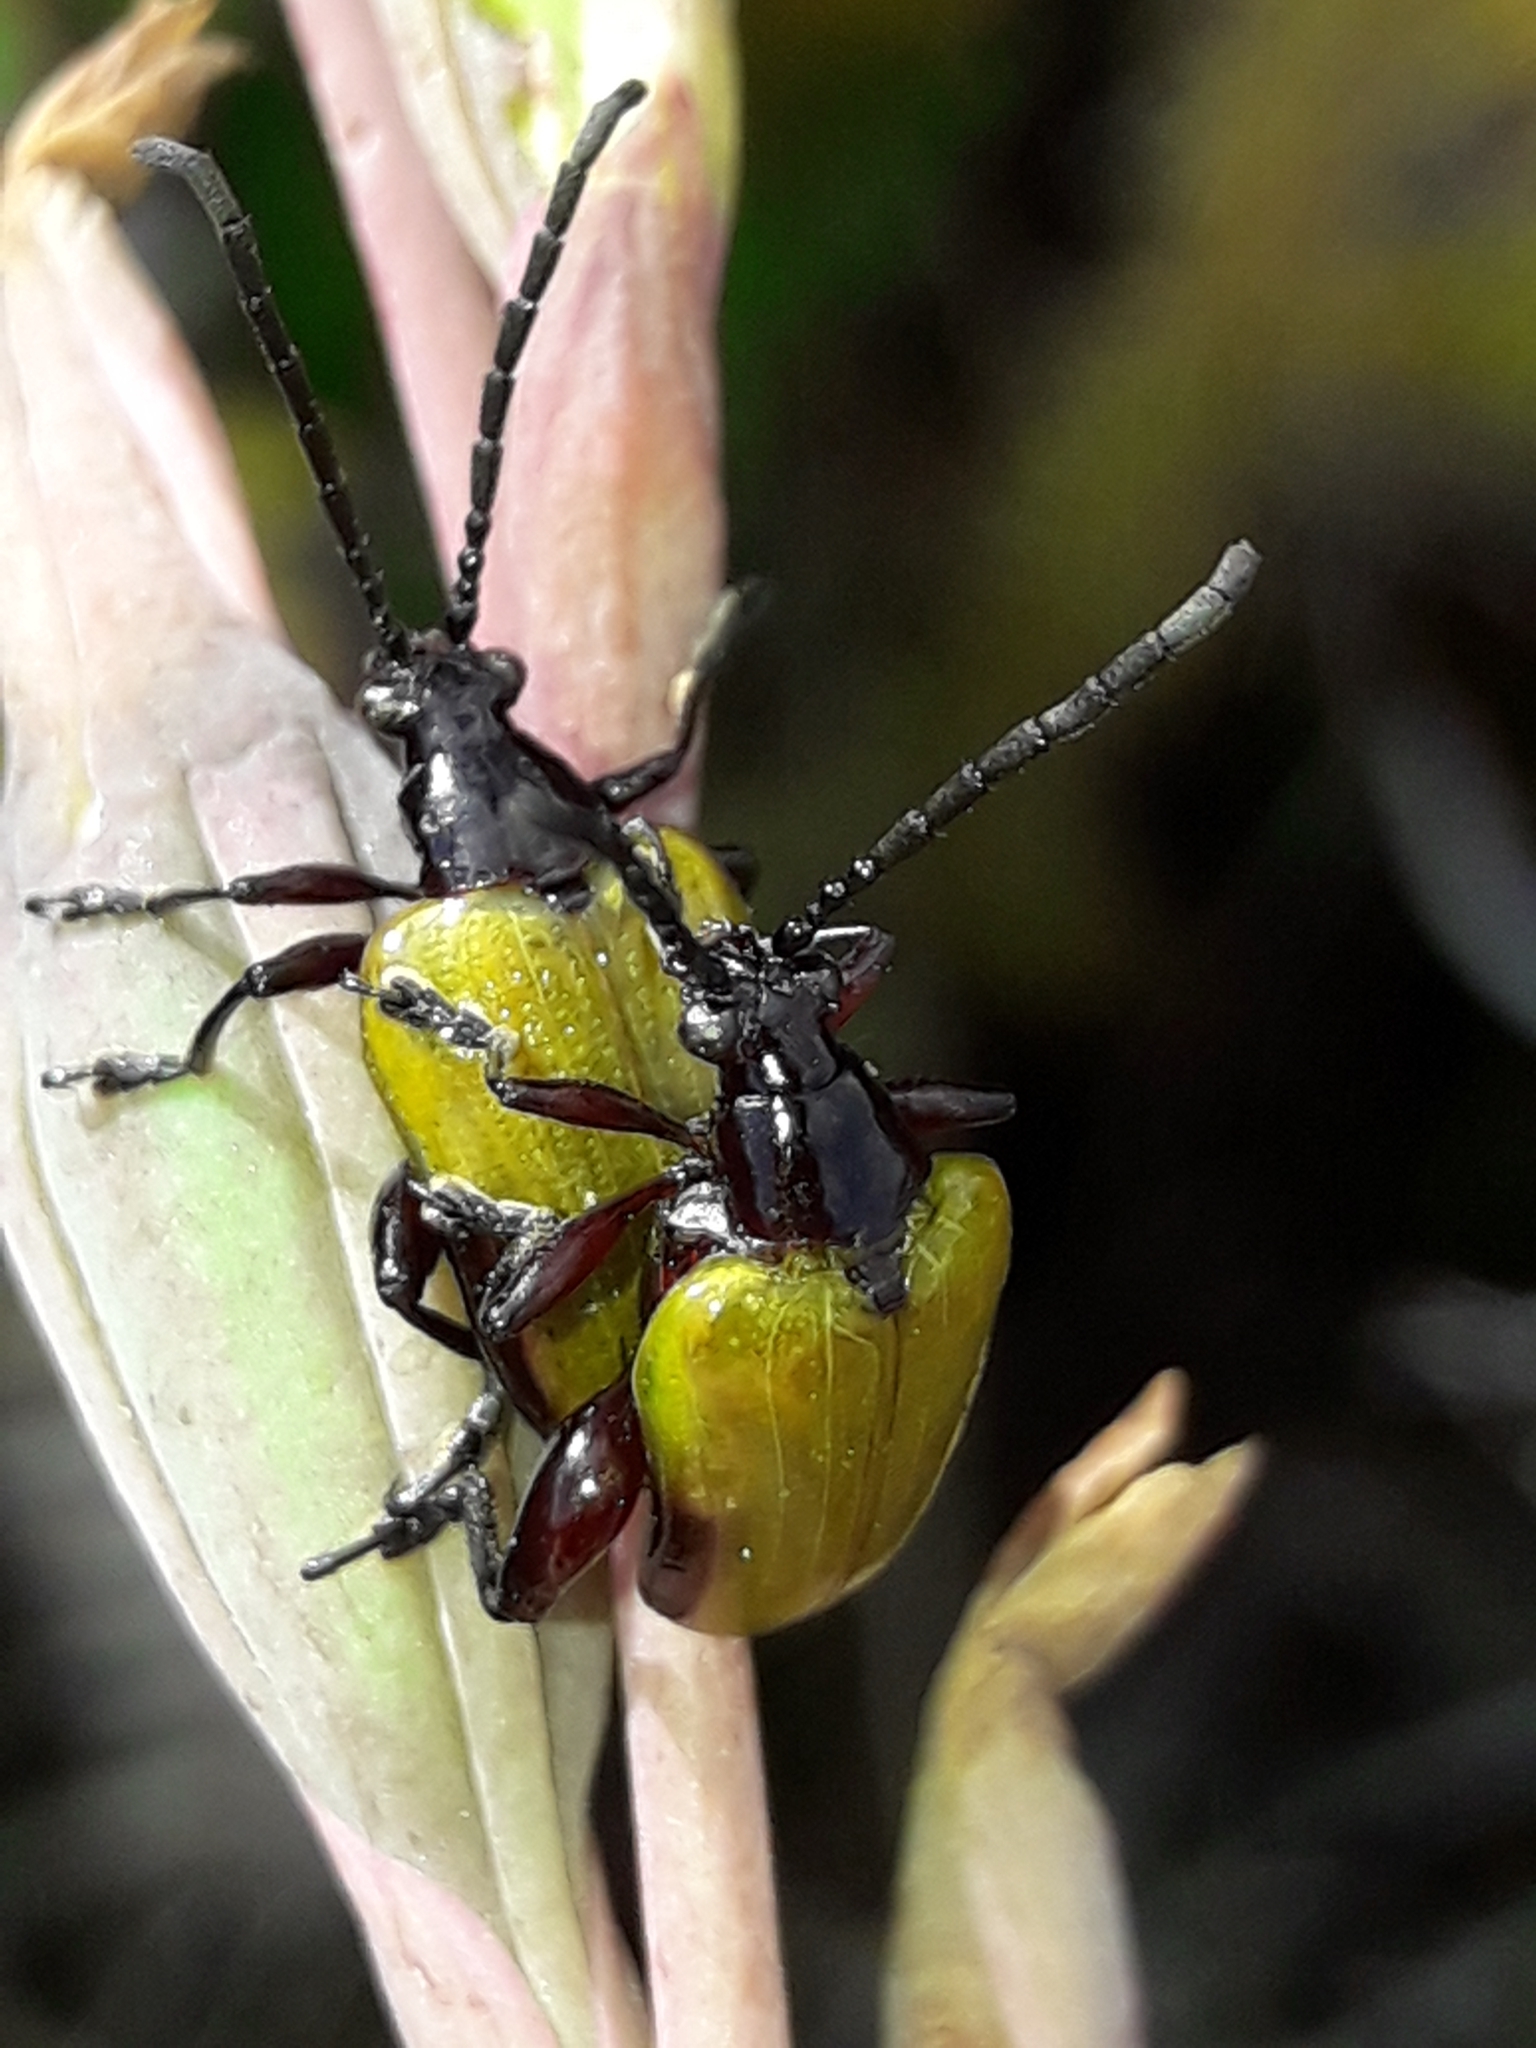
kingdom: Animalia
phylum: Arthropoda
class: Insecta
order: Coleoptera
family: Chrysomelidae
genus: Stethopachys
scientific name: Stethopachys javeti
